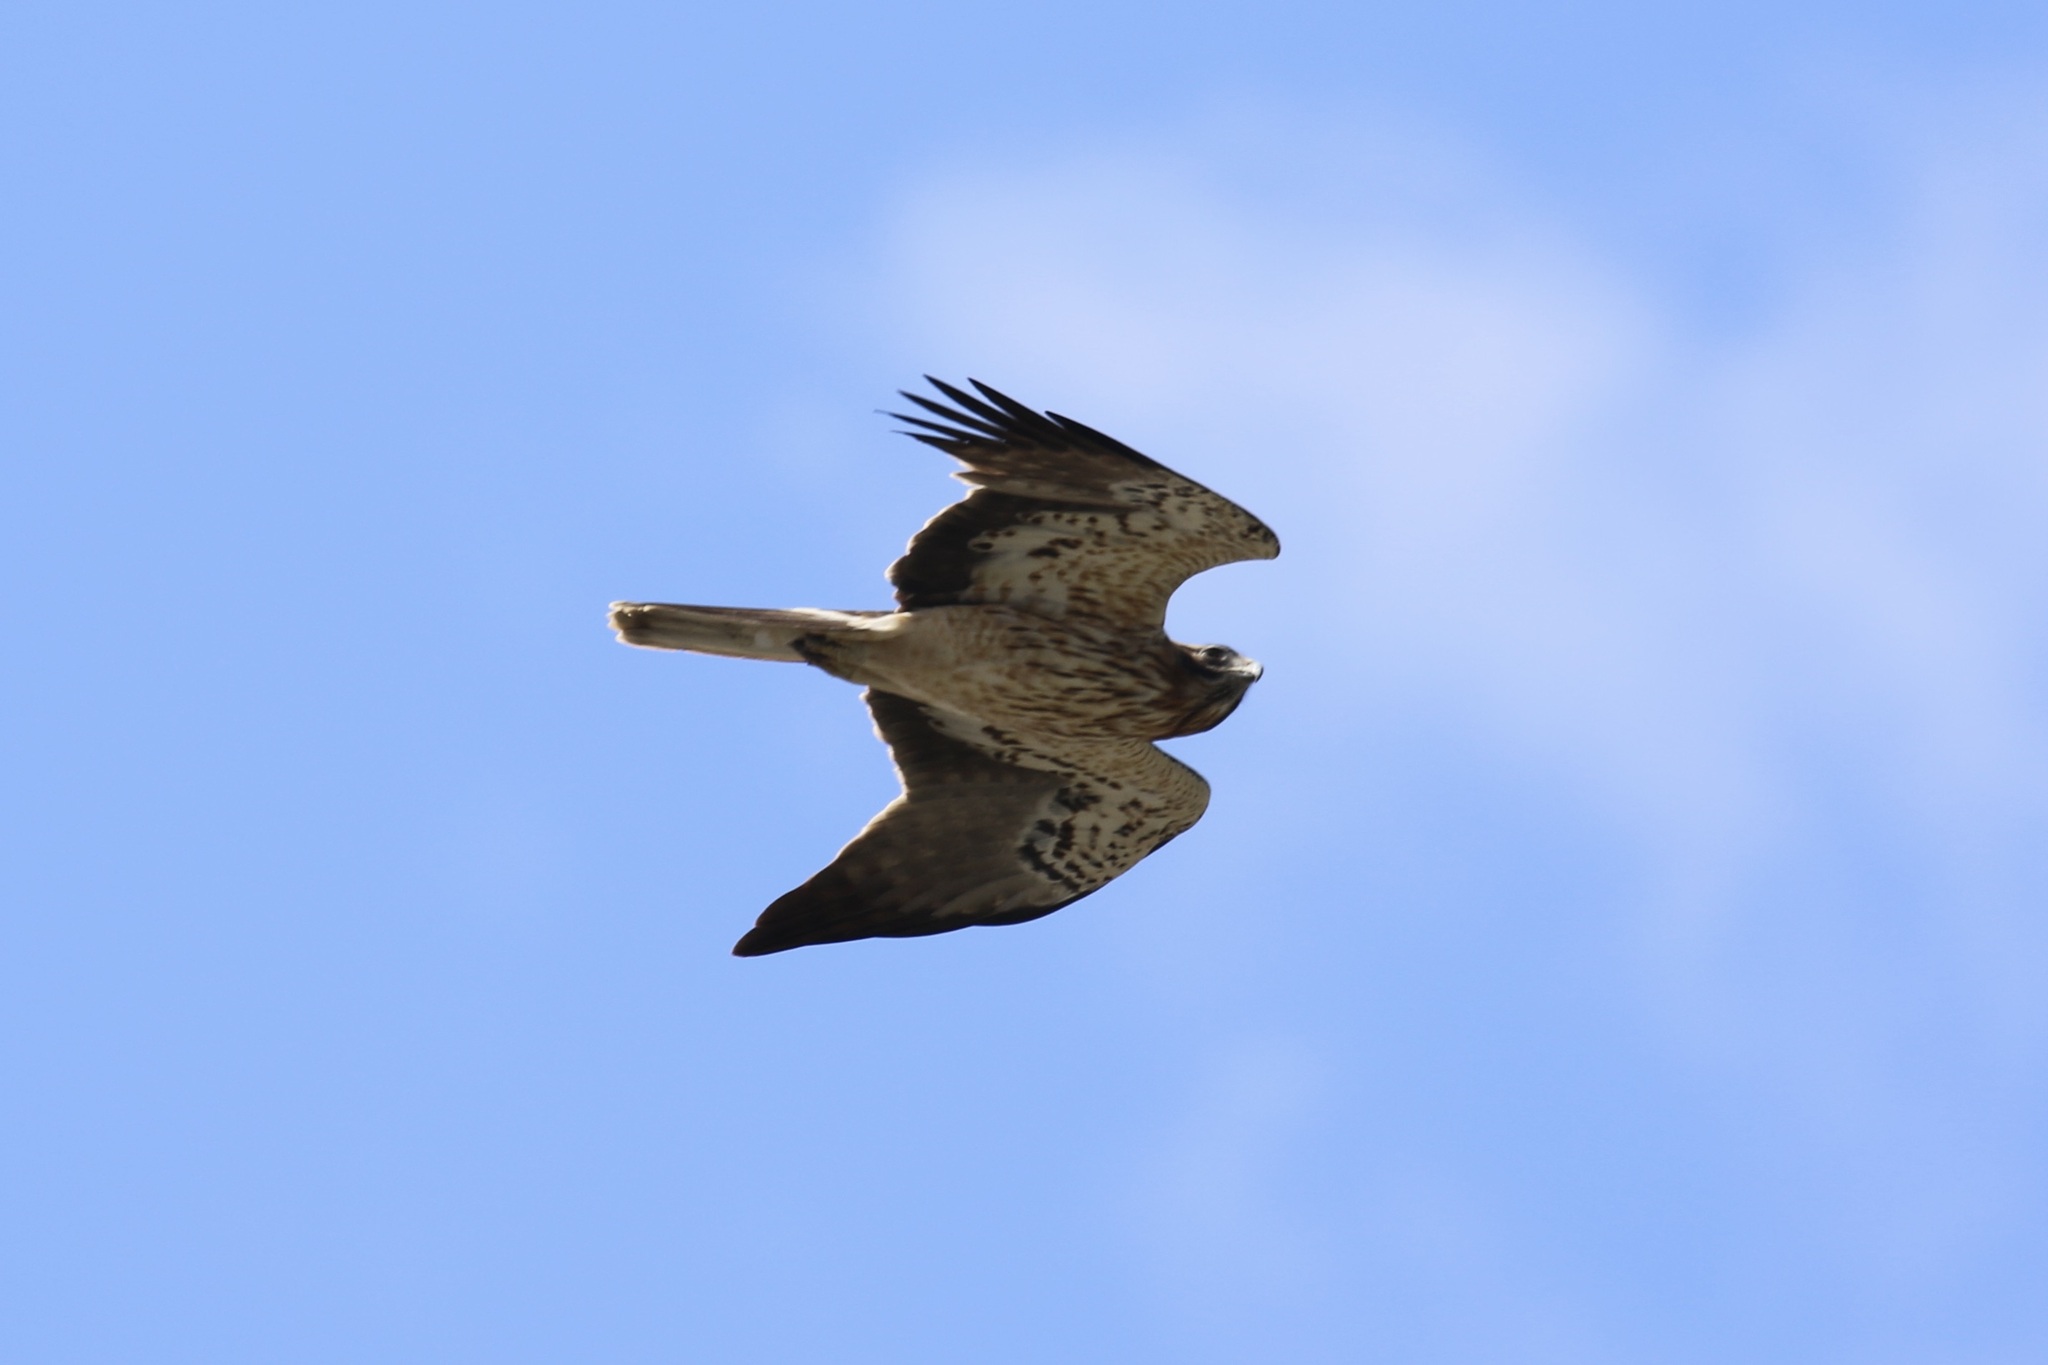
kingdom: Animalia
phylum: Chordata
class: Aves
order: Accipitriformes
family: Accipitridae
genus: Hieraaetus
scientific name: Hieraaetus pennatus
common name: Booted eagle
